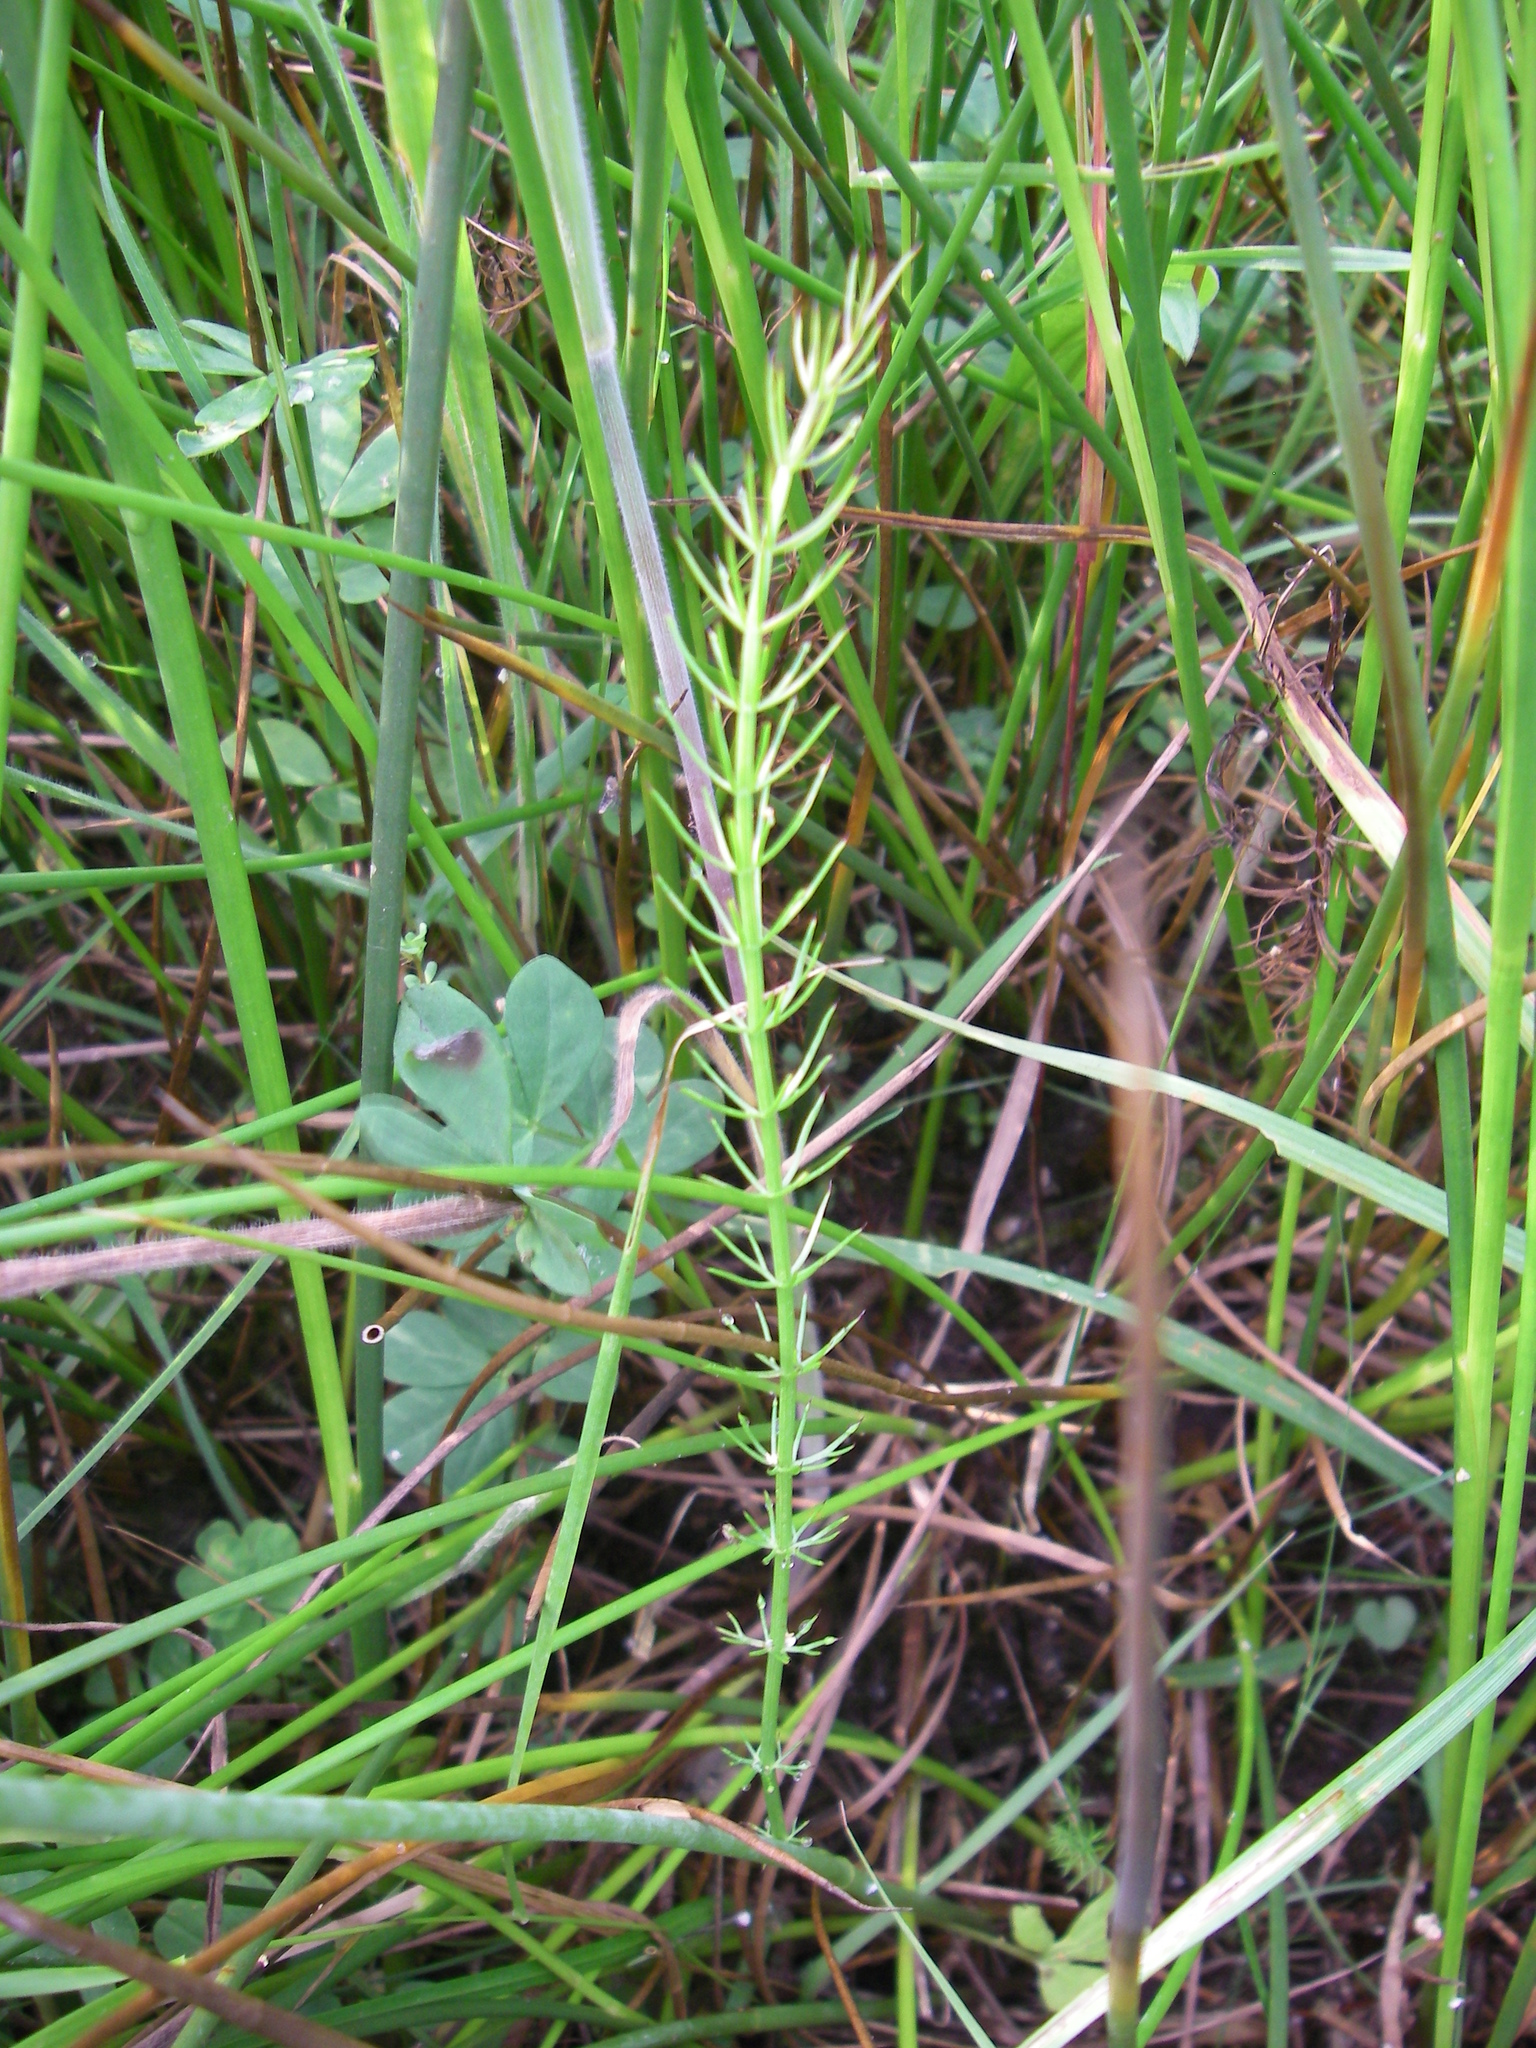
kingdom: Plantae
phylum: Tracheophyta
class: Magnoliopsida
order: Apiales
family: Apiaceae
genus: Trocdaris
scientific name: Trocdaris verticillatum
